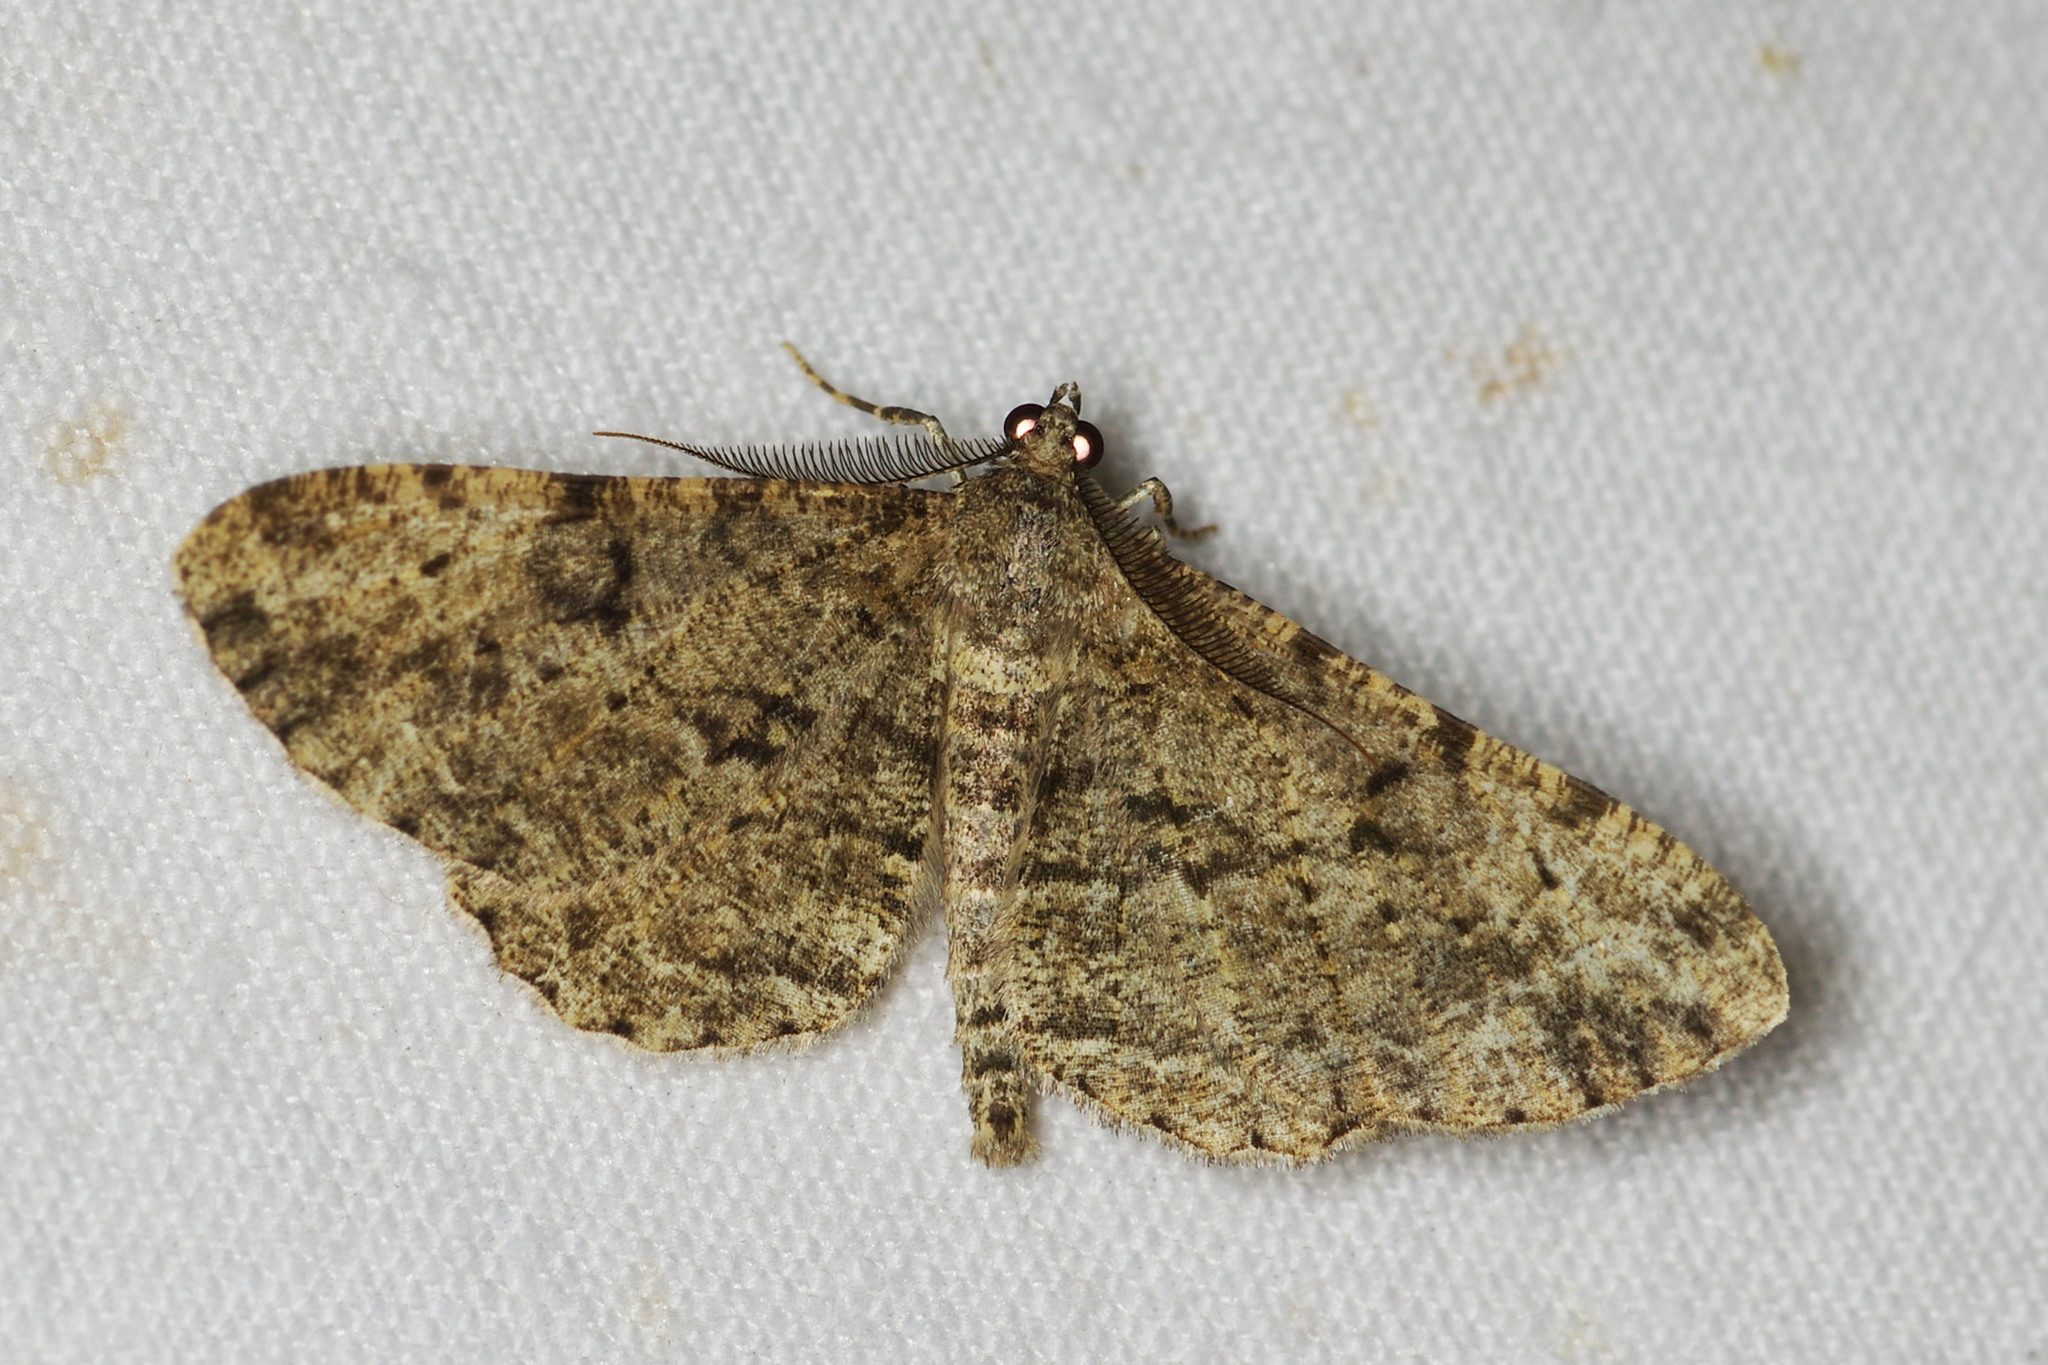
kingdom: Animalia
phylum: Arthropoda
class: Insecta
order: Lepidoptera
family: Geometridae
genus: Peribatodes
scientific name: Peribatodes rhomboidaria
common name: Willow beauty
